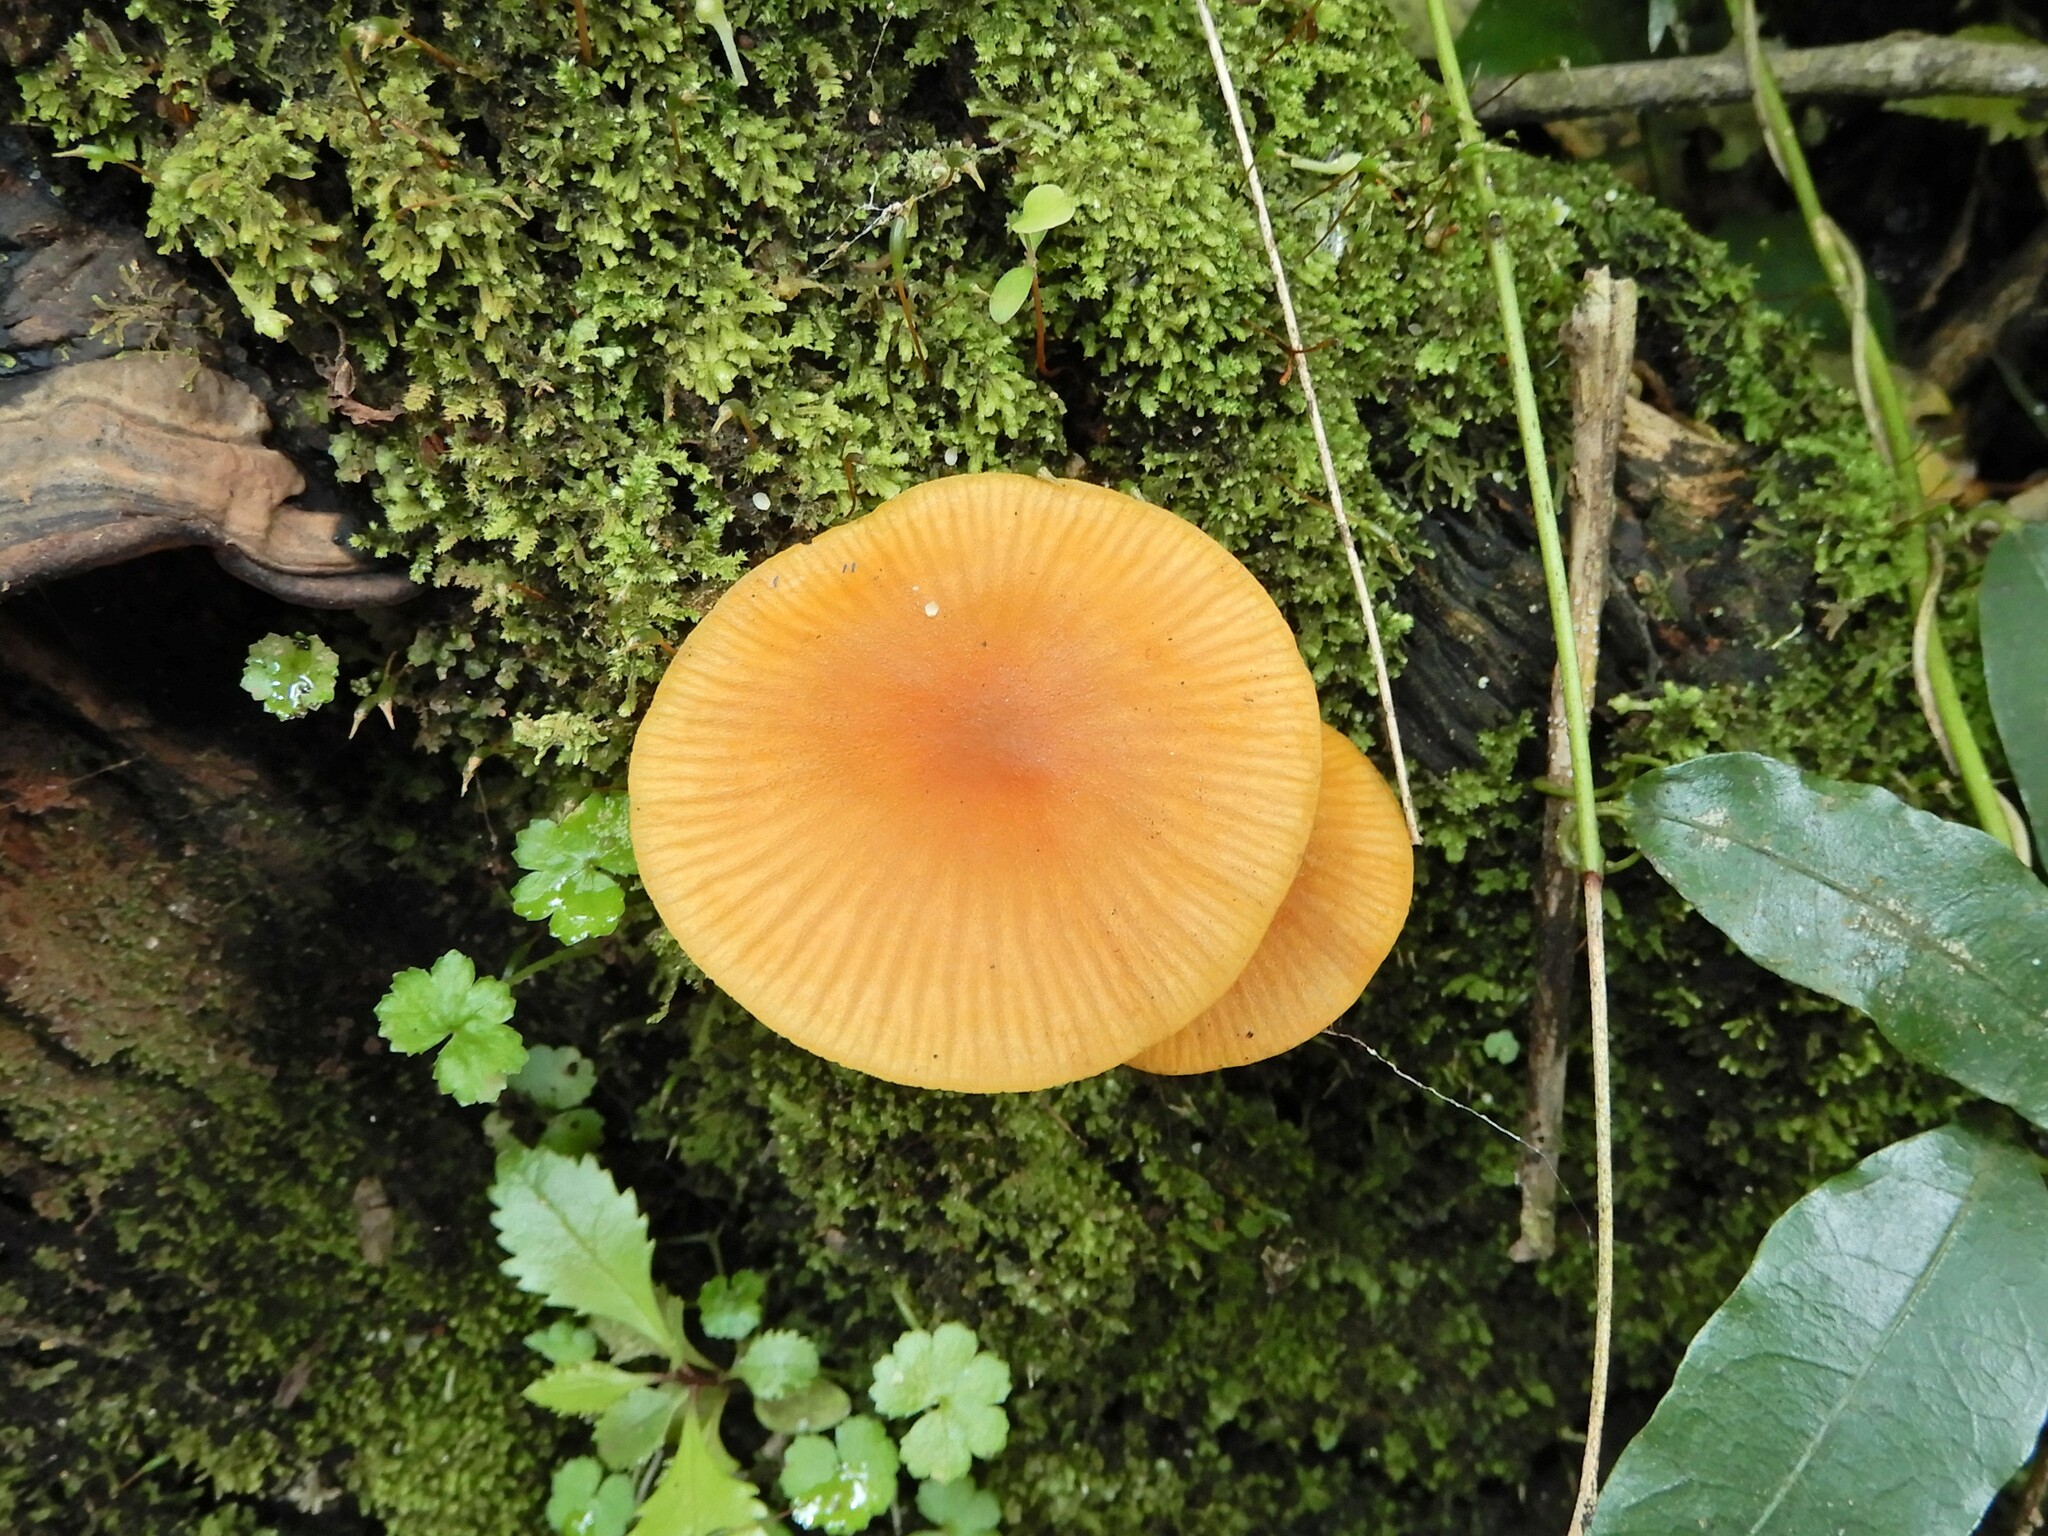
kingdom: Fungi
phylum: Basidiomycota
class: Agaricomycetes
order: Agaricales
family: Mycenaceae
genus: Heimiomyces
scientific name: Heimiomyces velutipes
